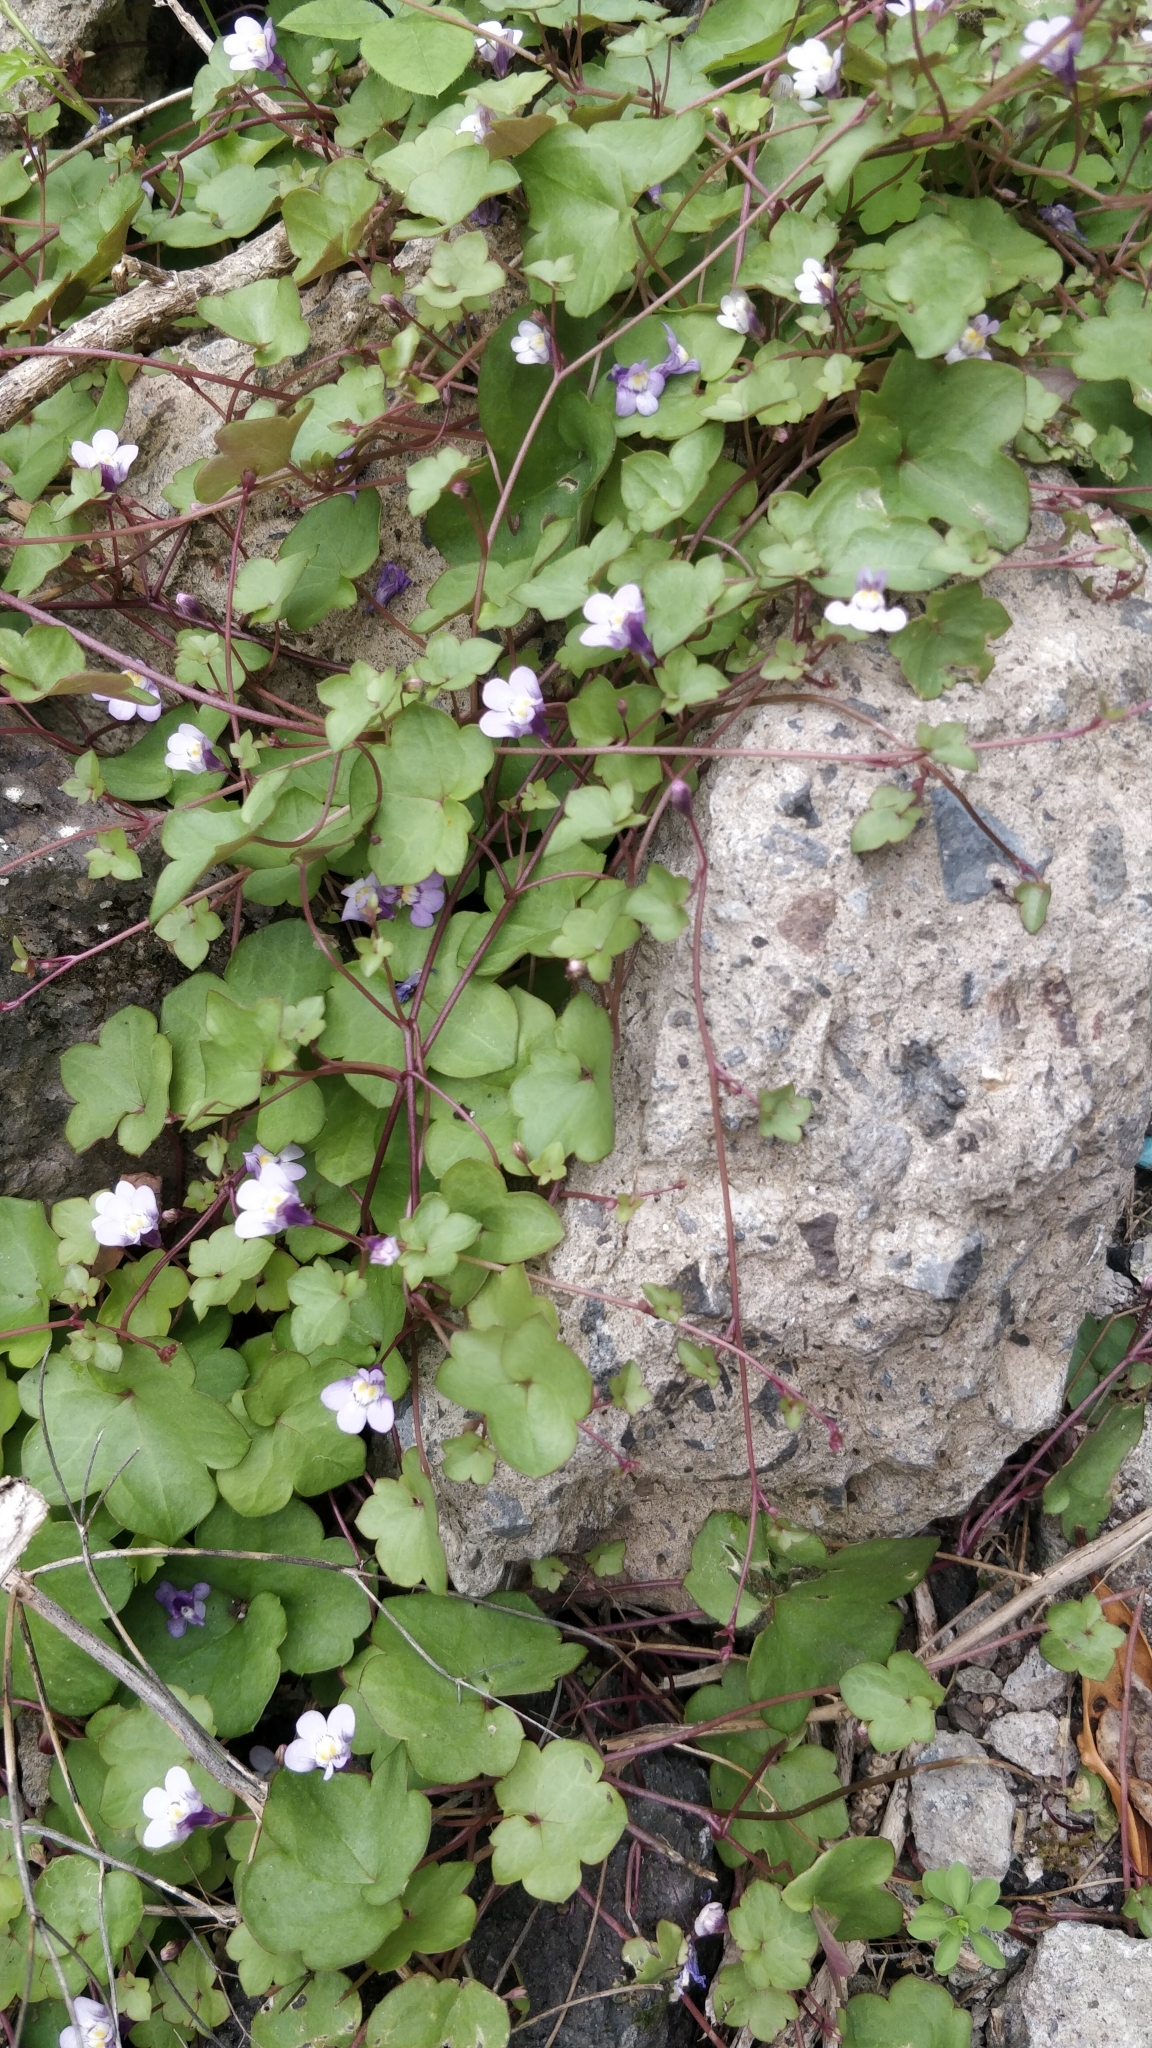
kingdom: Plantae
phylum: Tracheophyta
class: Magnoliopsida
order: Lamiales
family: Plantaginaceae
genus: Cymbalaria
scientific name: Cymbalaria muralis
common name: Ivy-leaved toadflax
